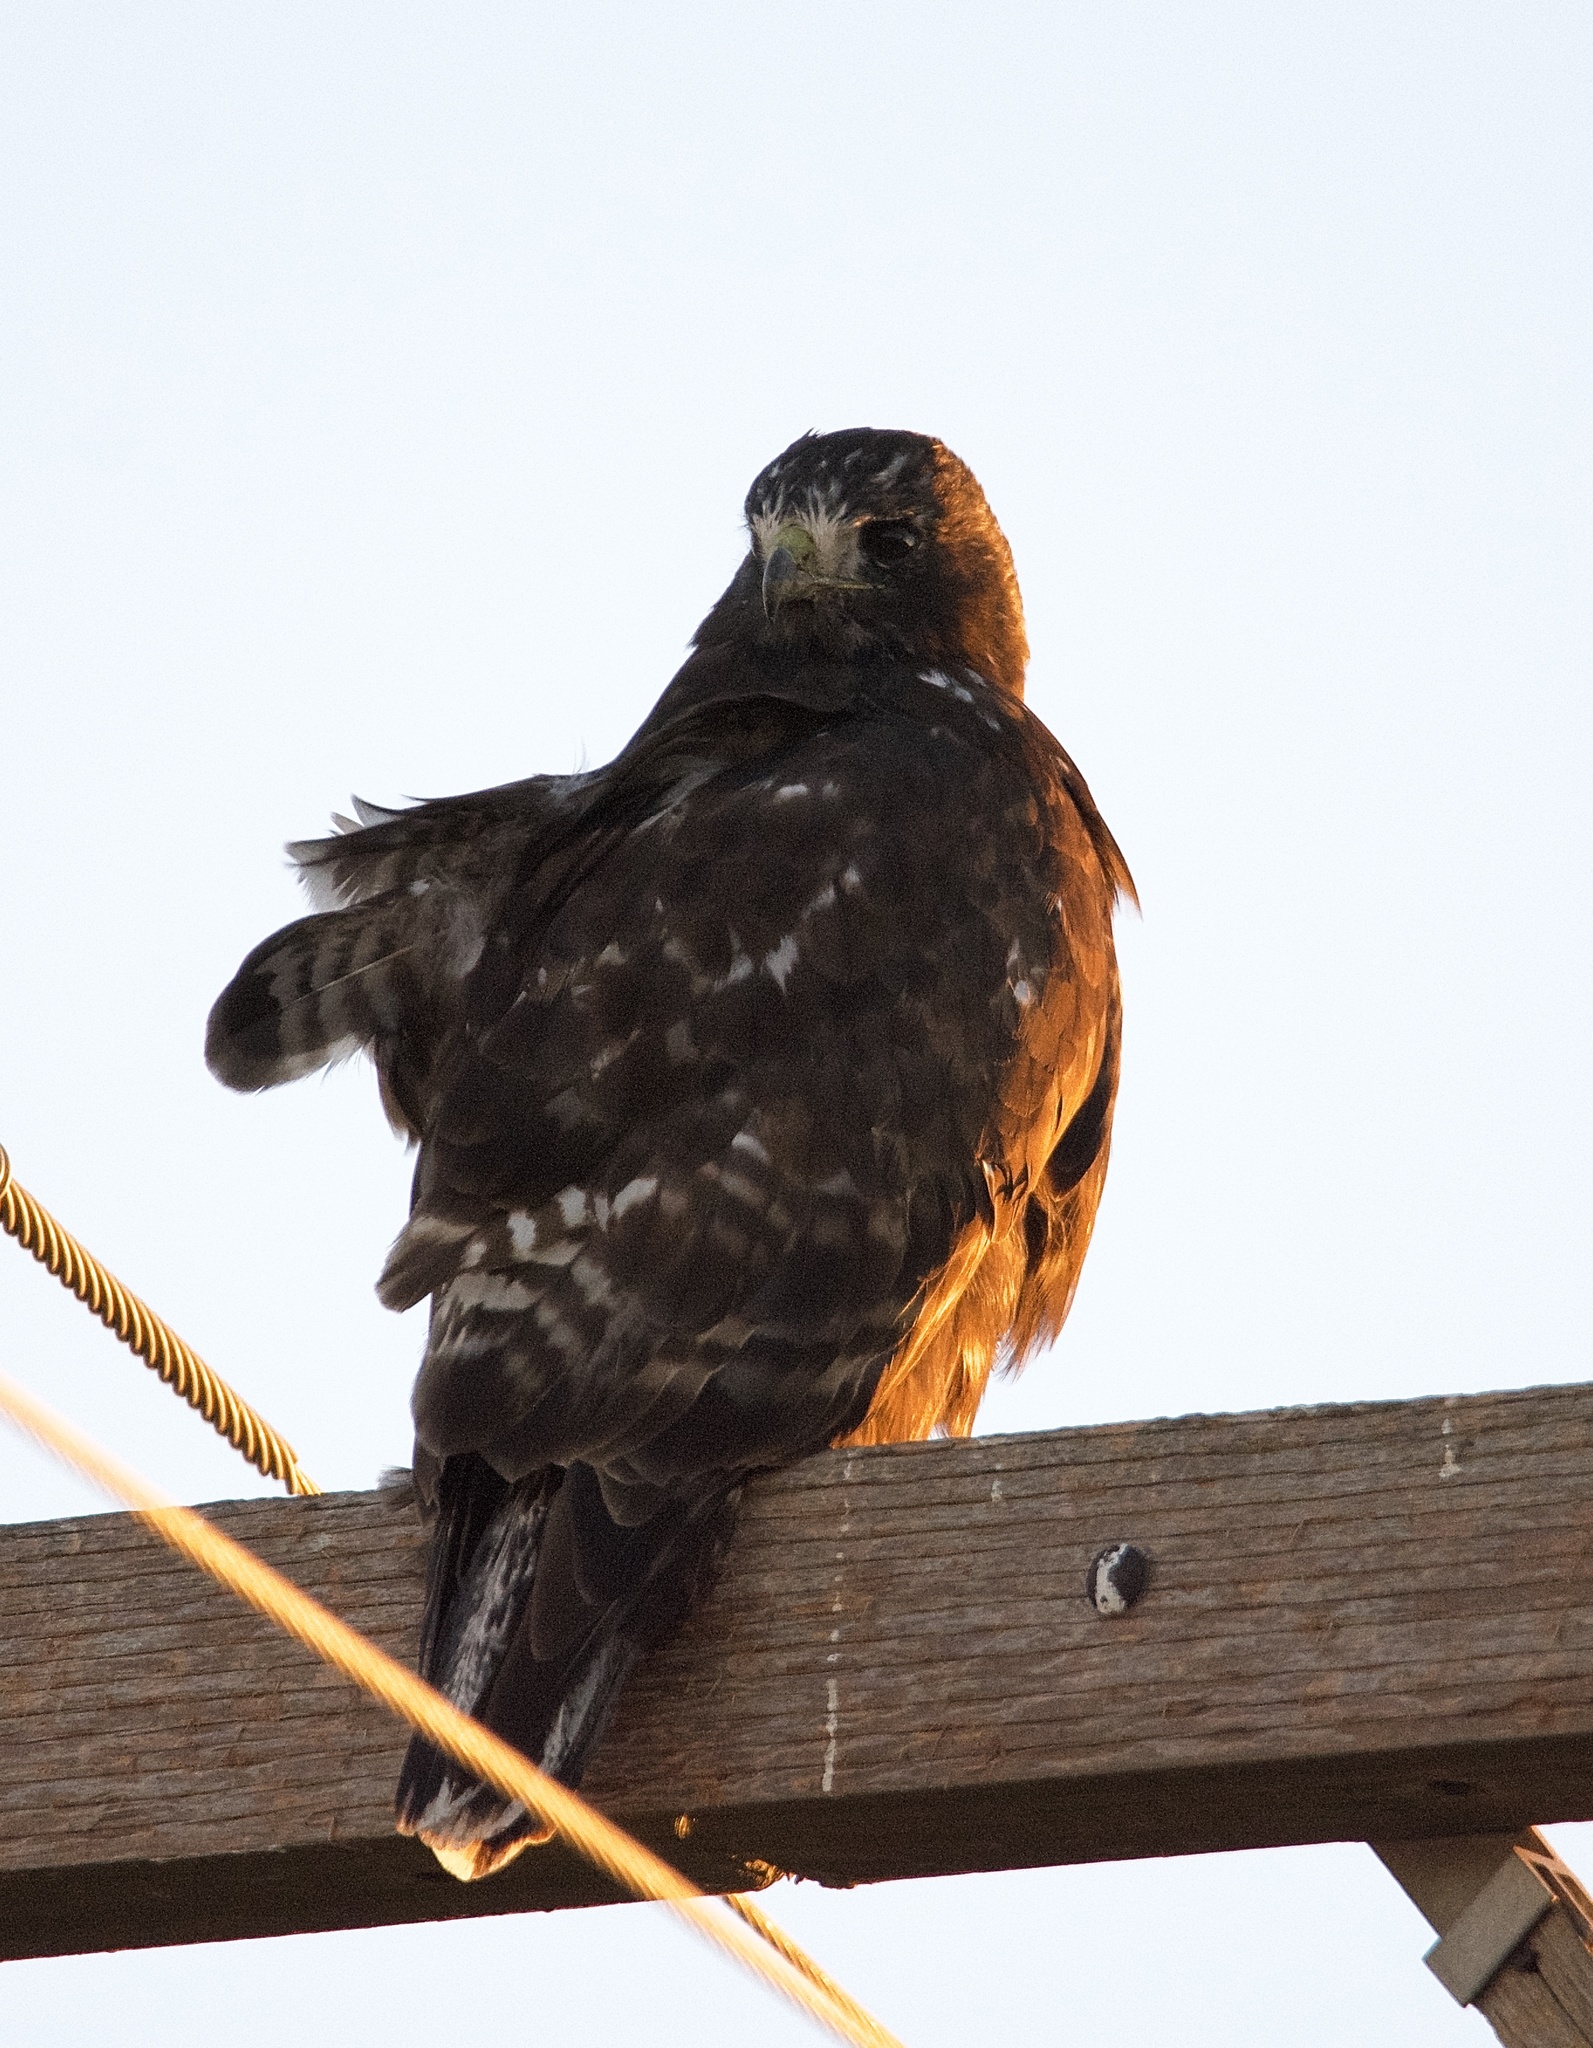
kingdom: Animalia
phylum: Chordata
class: Aves
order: Accipitriformes
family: Accipitridae
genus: Buteo
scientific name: Buteo jamaicensis
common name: Red-tailed hawk
